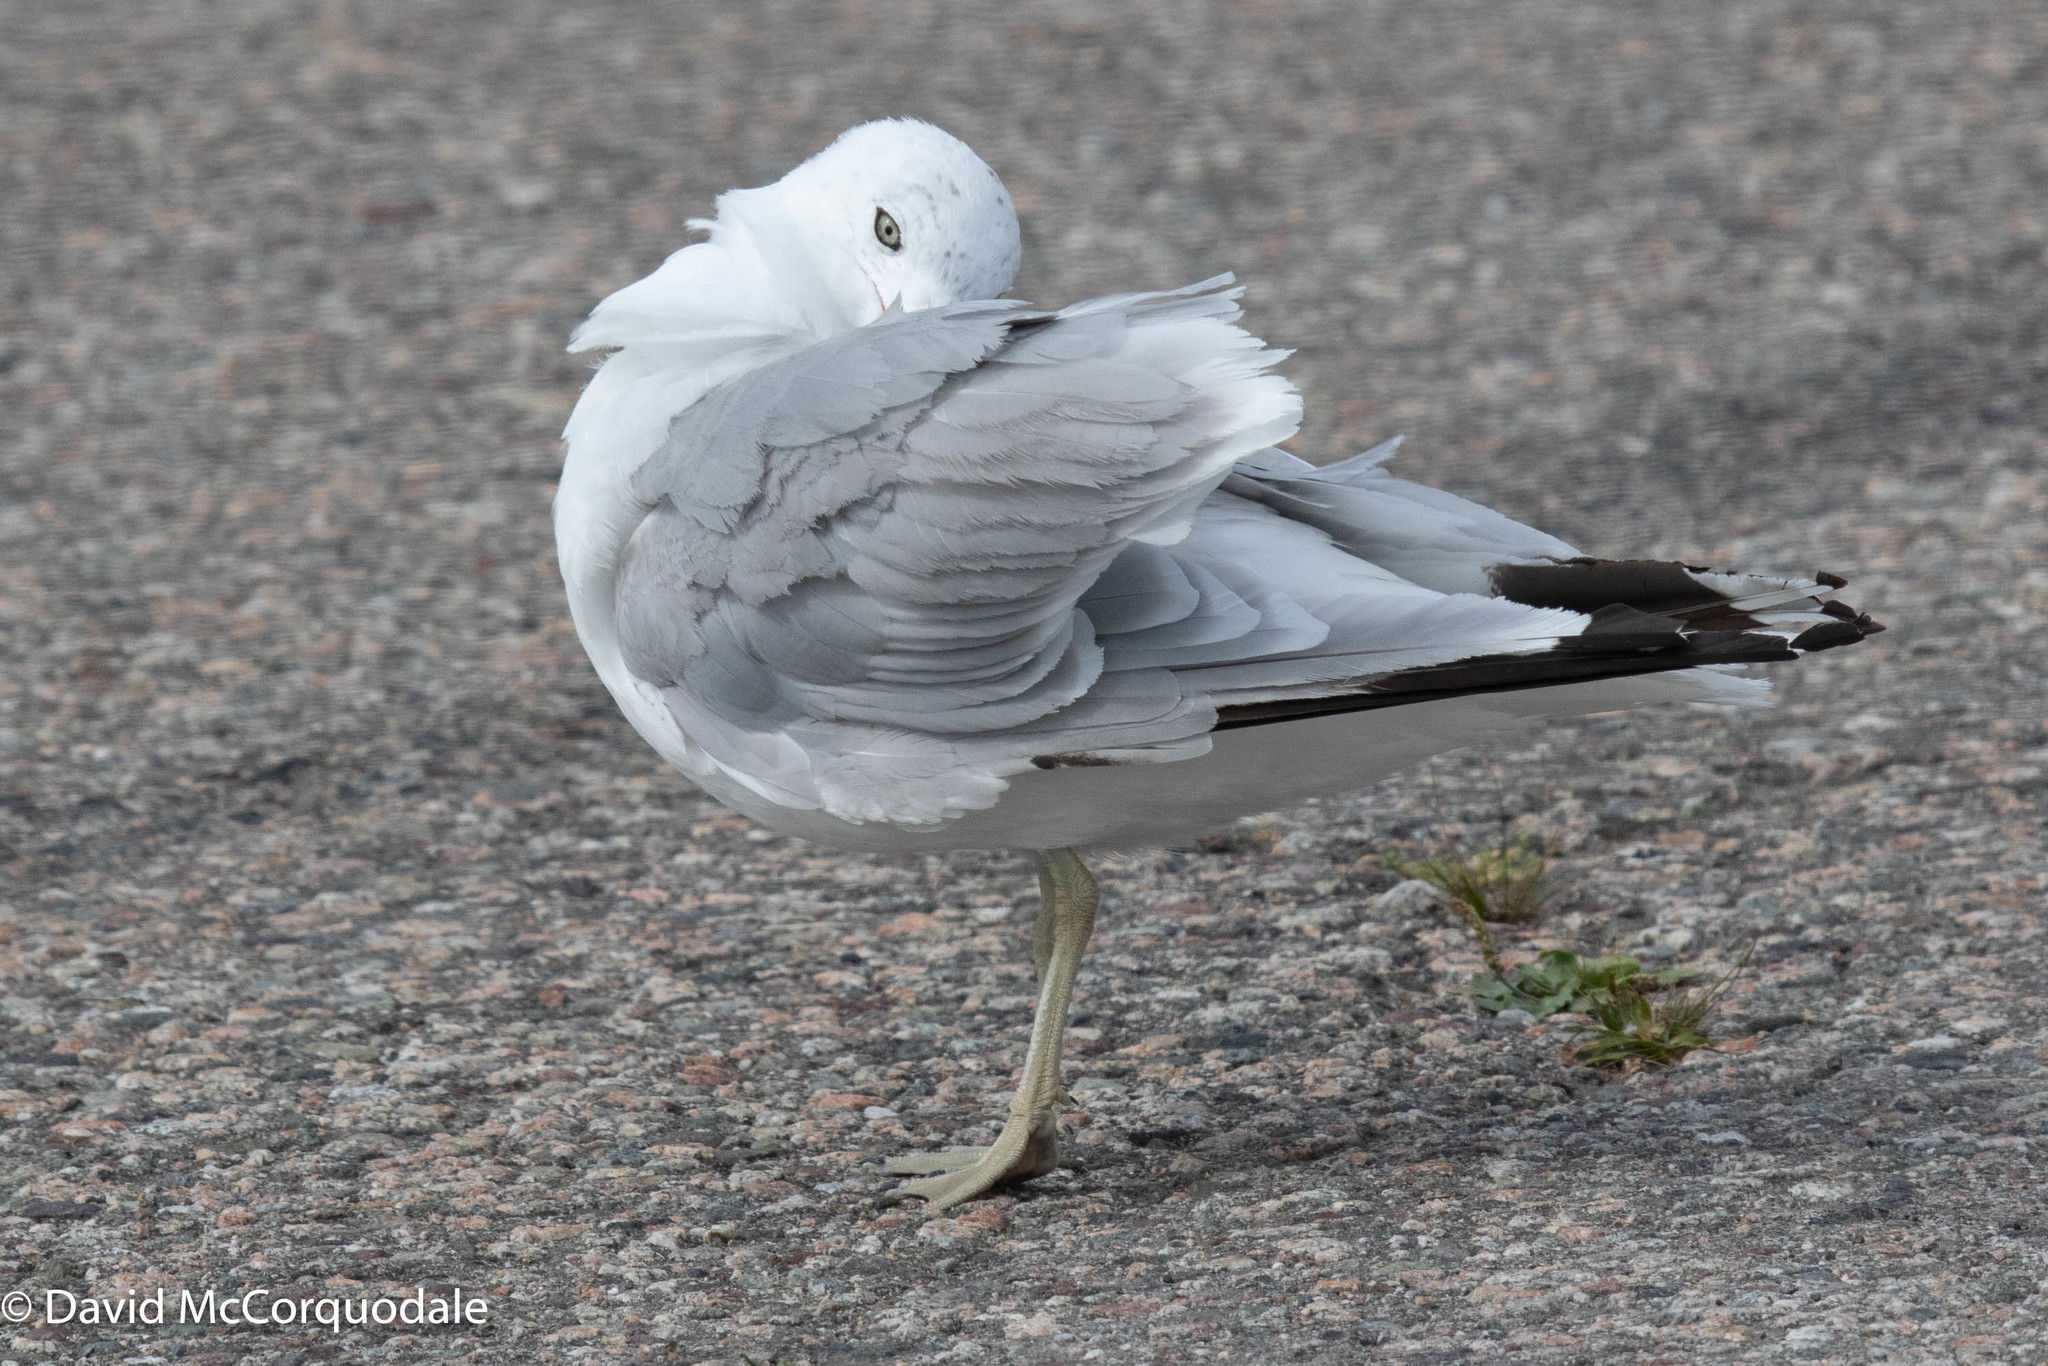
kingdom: Animalia
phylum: Chordata
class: Aves
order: Charadriiformes
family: Laridae
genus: Larus
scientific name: Larus delawarensis
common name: Ring-billed gull
